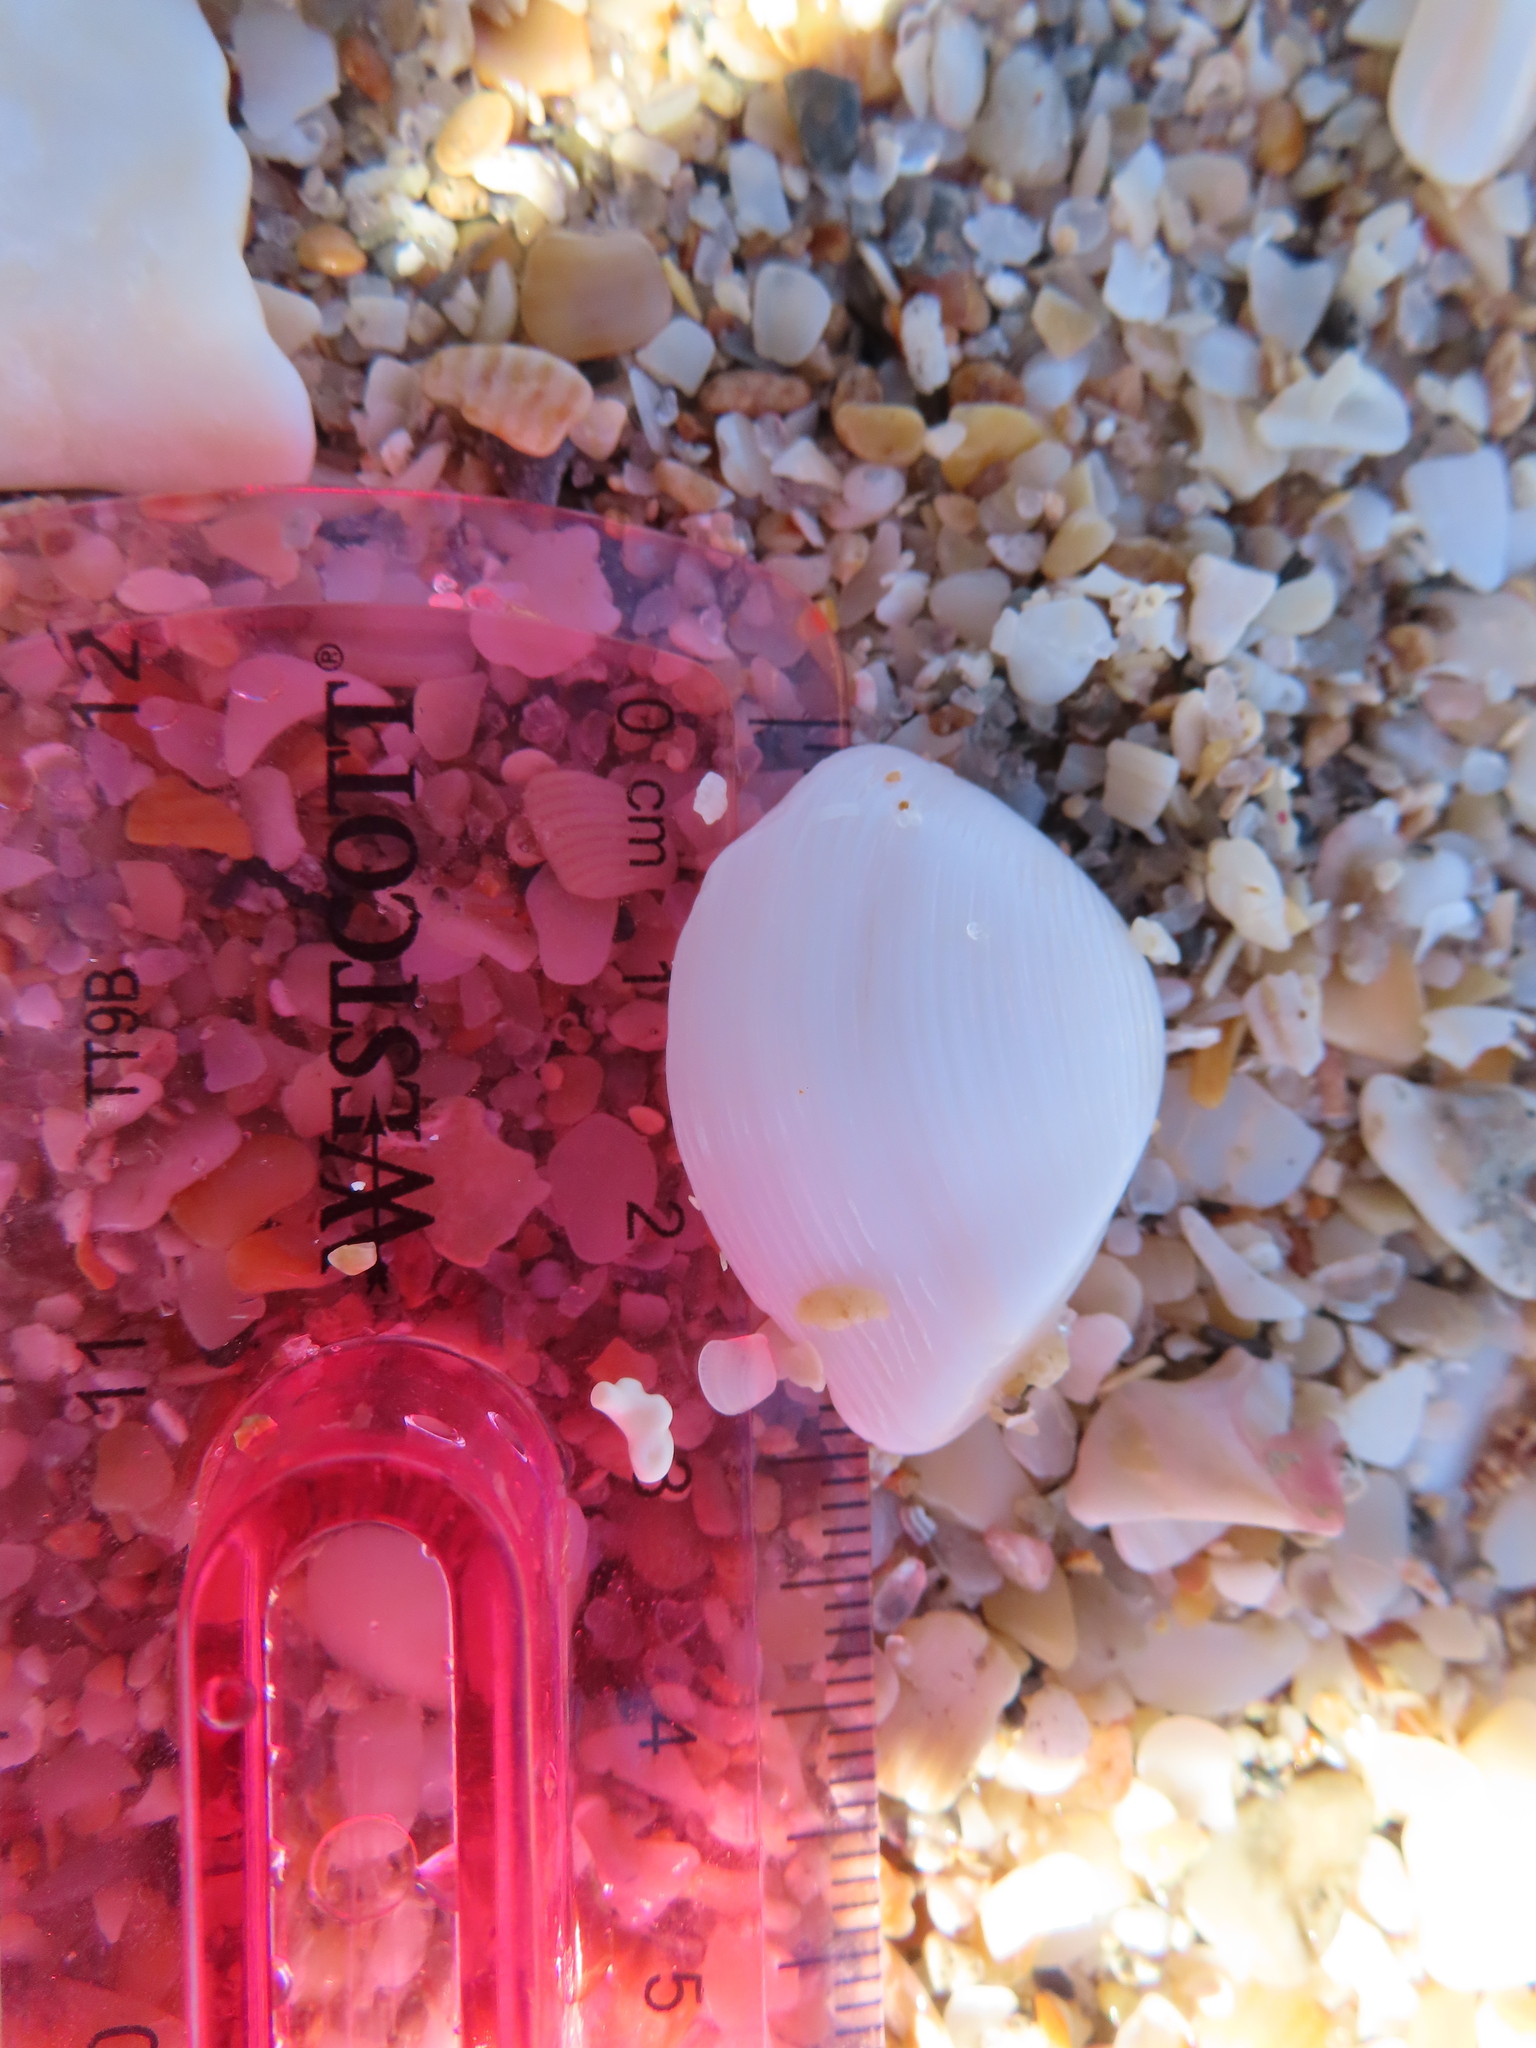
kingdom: Animalia
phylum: Mollusca
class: Bivalvia
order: Carditida
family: Crassatellidae
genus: Kalolophus
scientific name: Kalolophus speciosus
